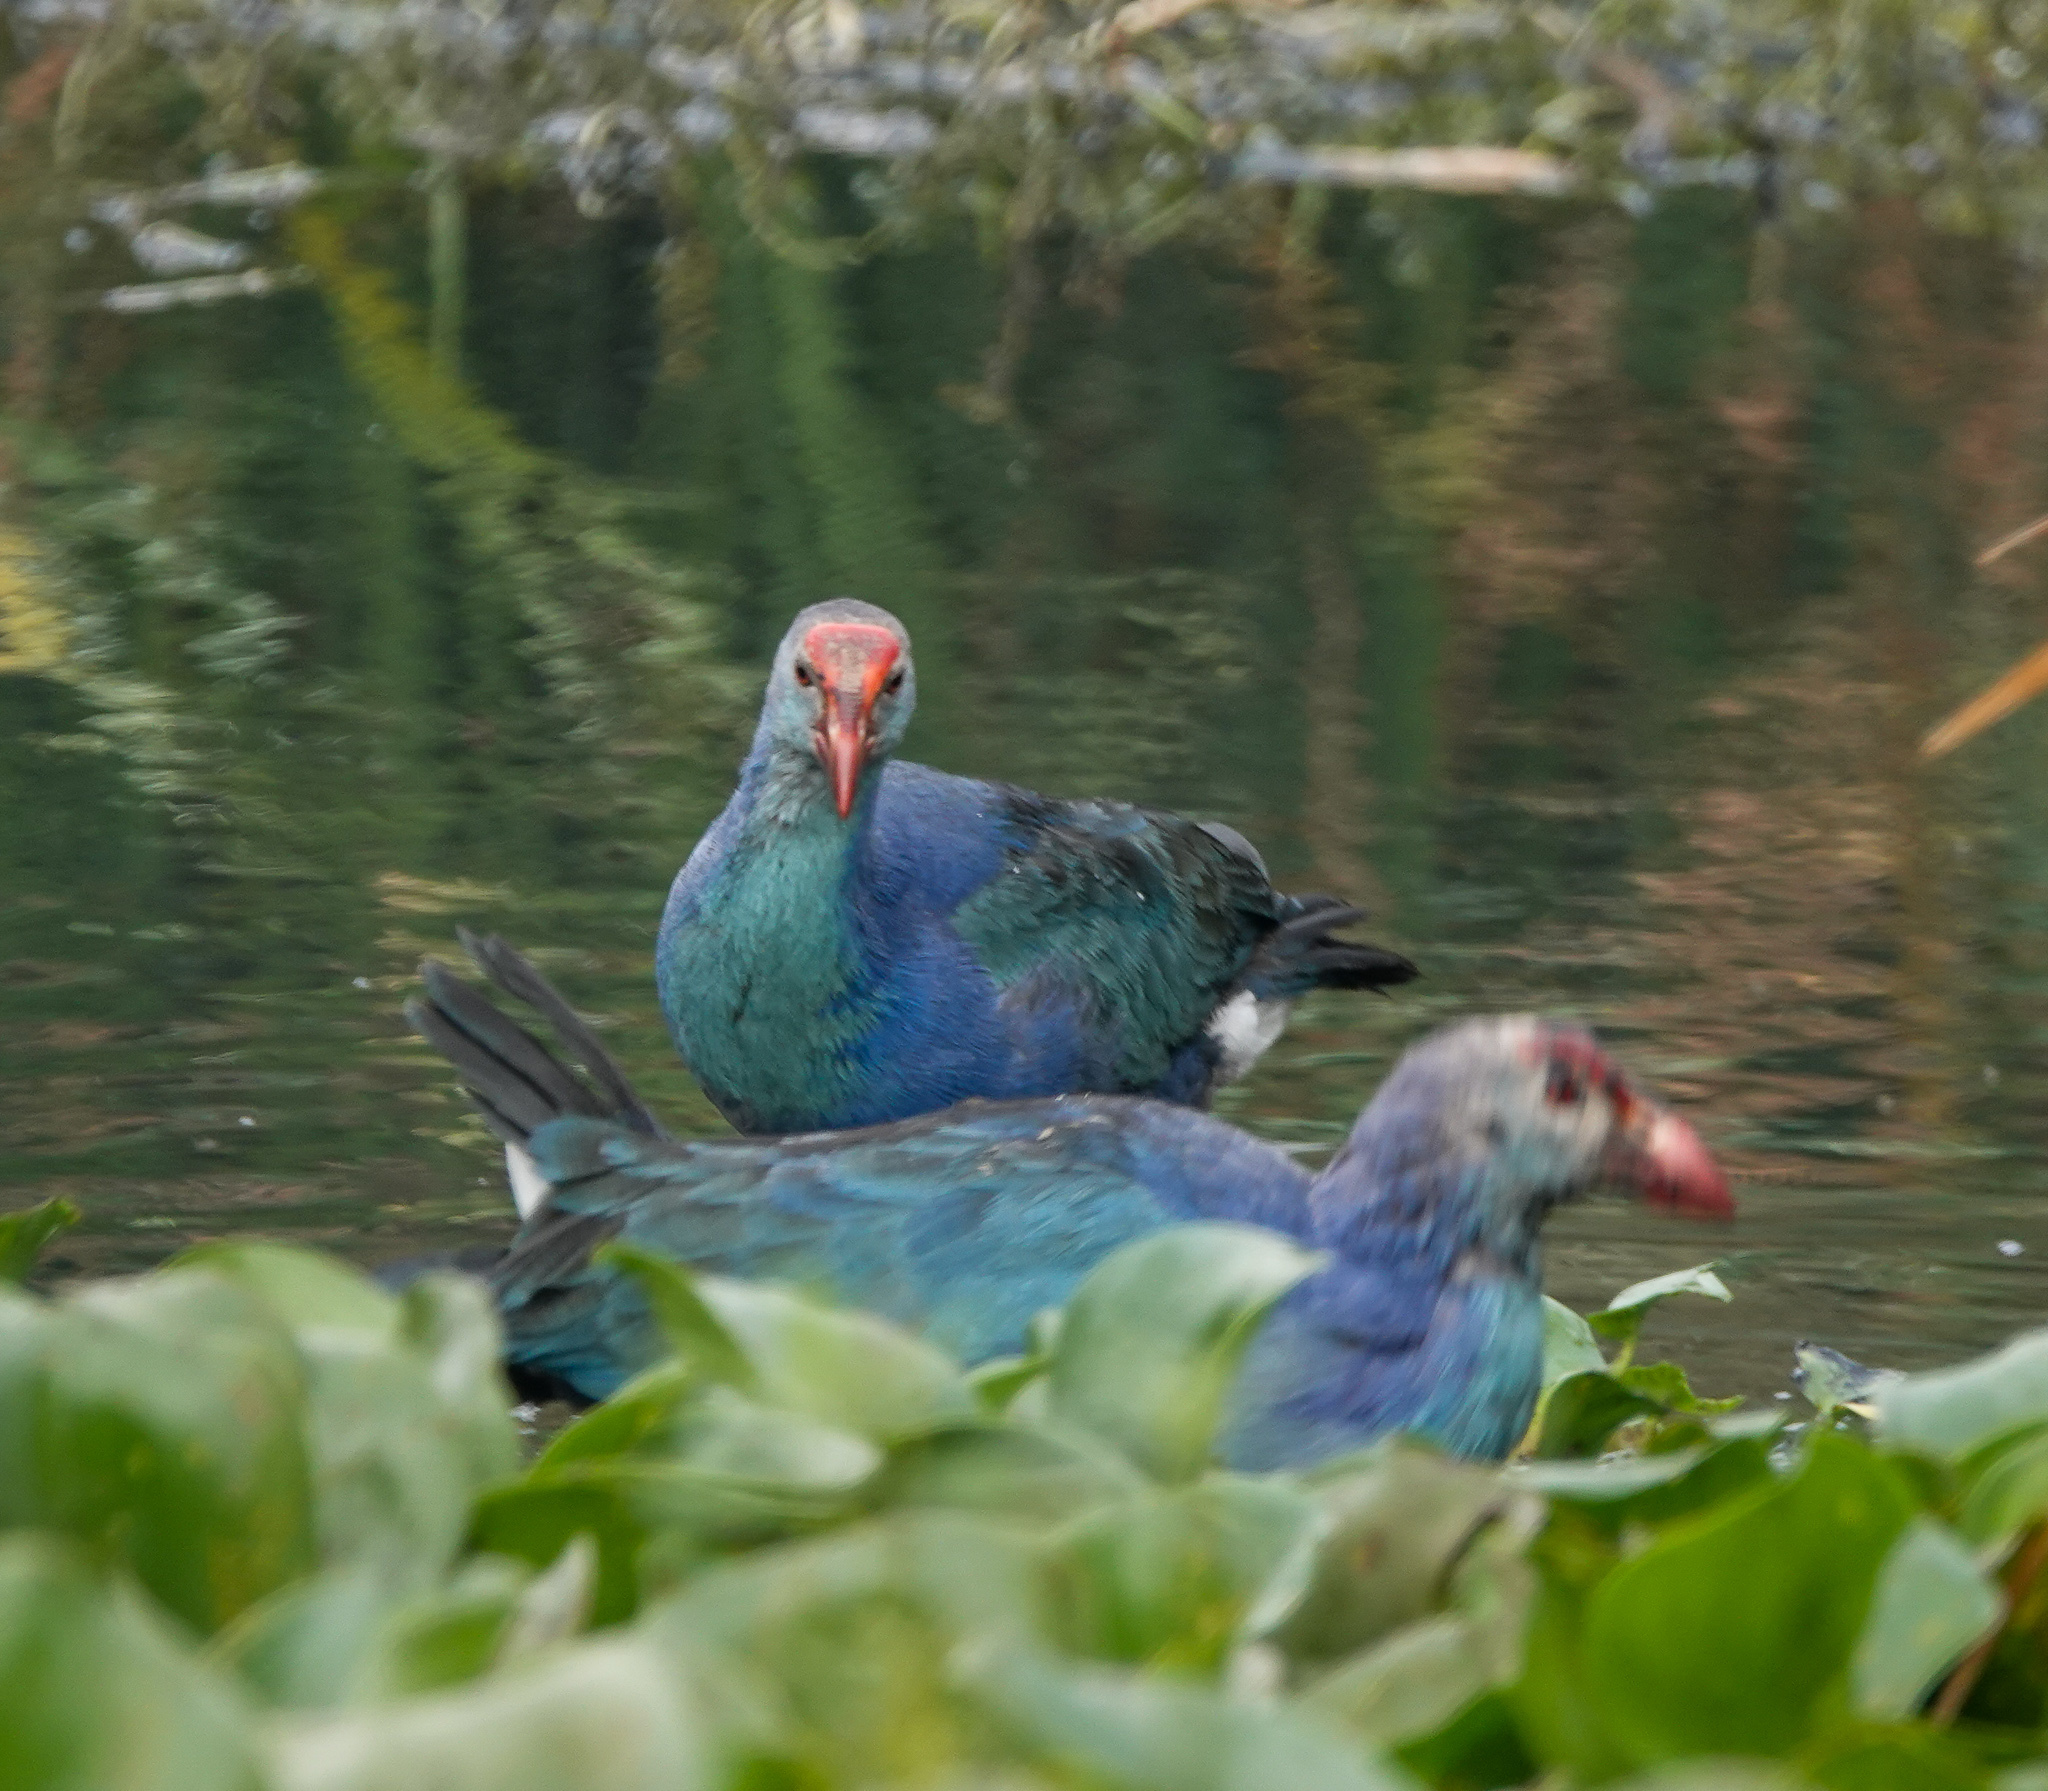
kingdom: Animalia
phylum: Chordata
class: Aves
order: Gruiformes
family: Rallidae
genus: Porphyrio
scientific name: Porphyrio porphyrio
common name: Purple swamphen
